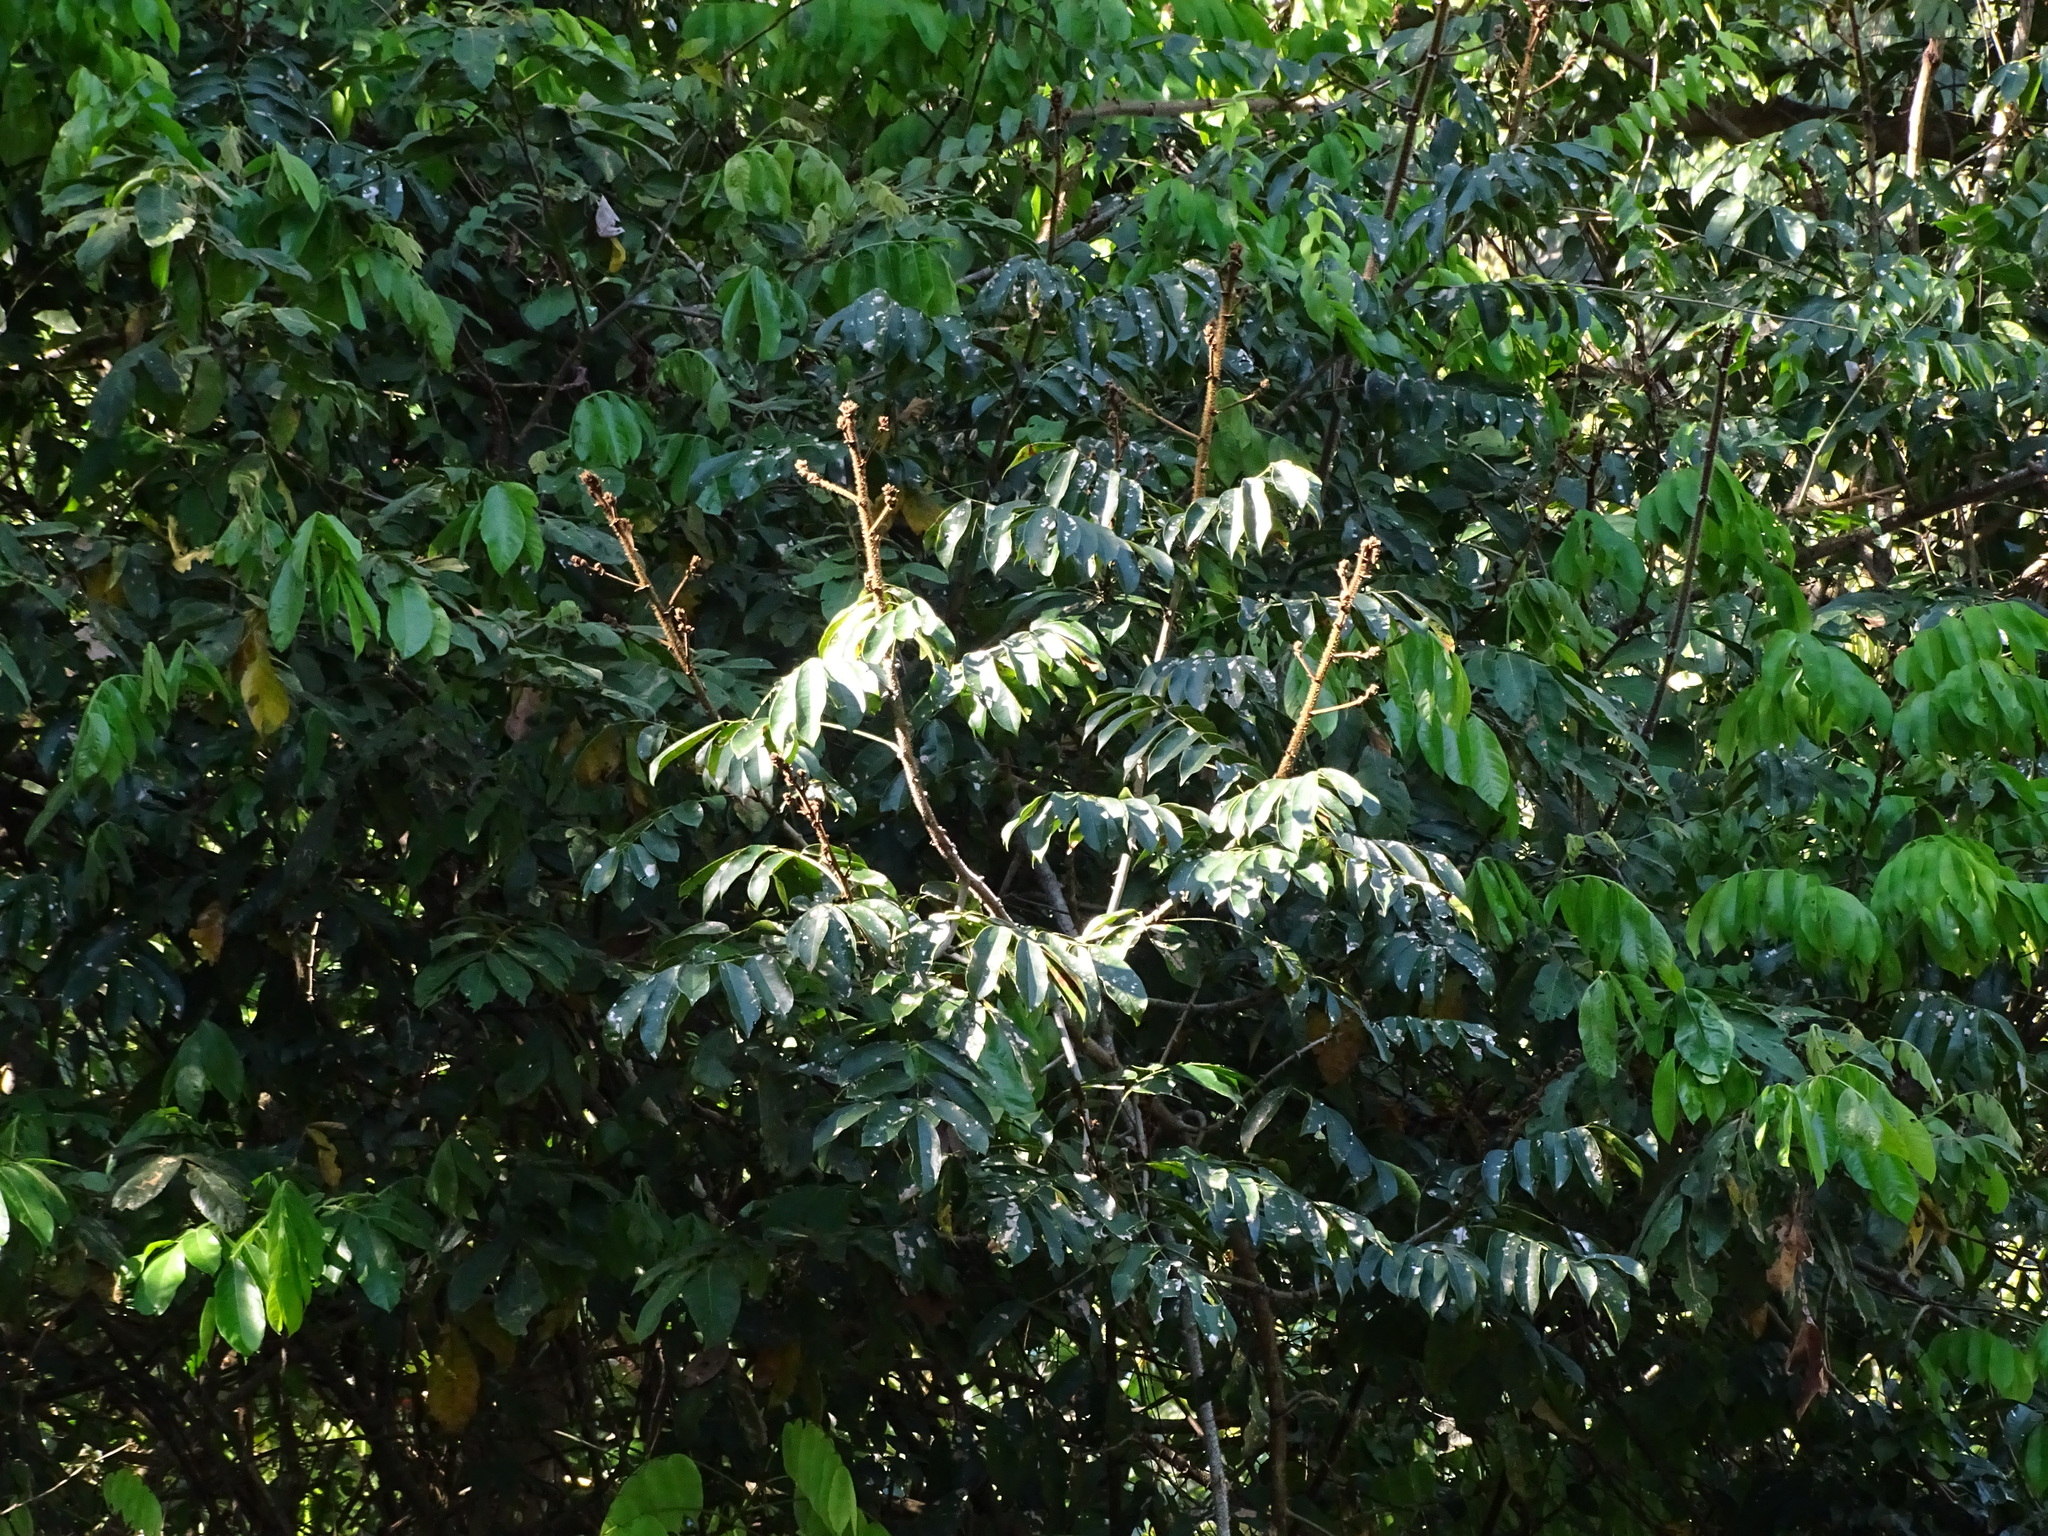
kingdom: Plantae
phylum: Tracheophyta
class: Magnoliopsida
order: Fabales
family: Fabaceae
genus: Machaerium
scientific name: Machaerium kegelii
